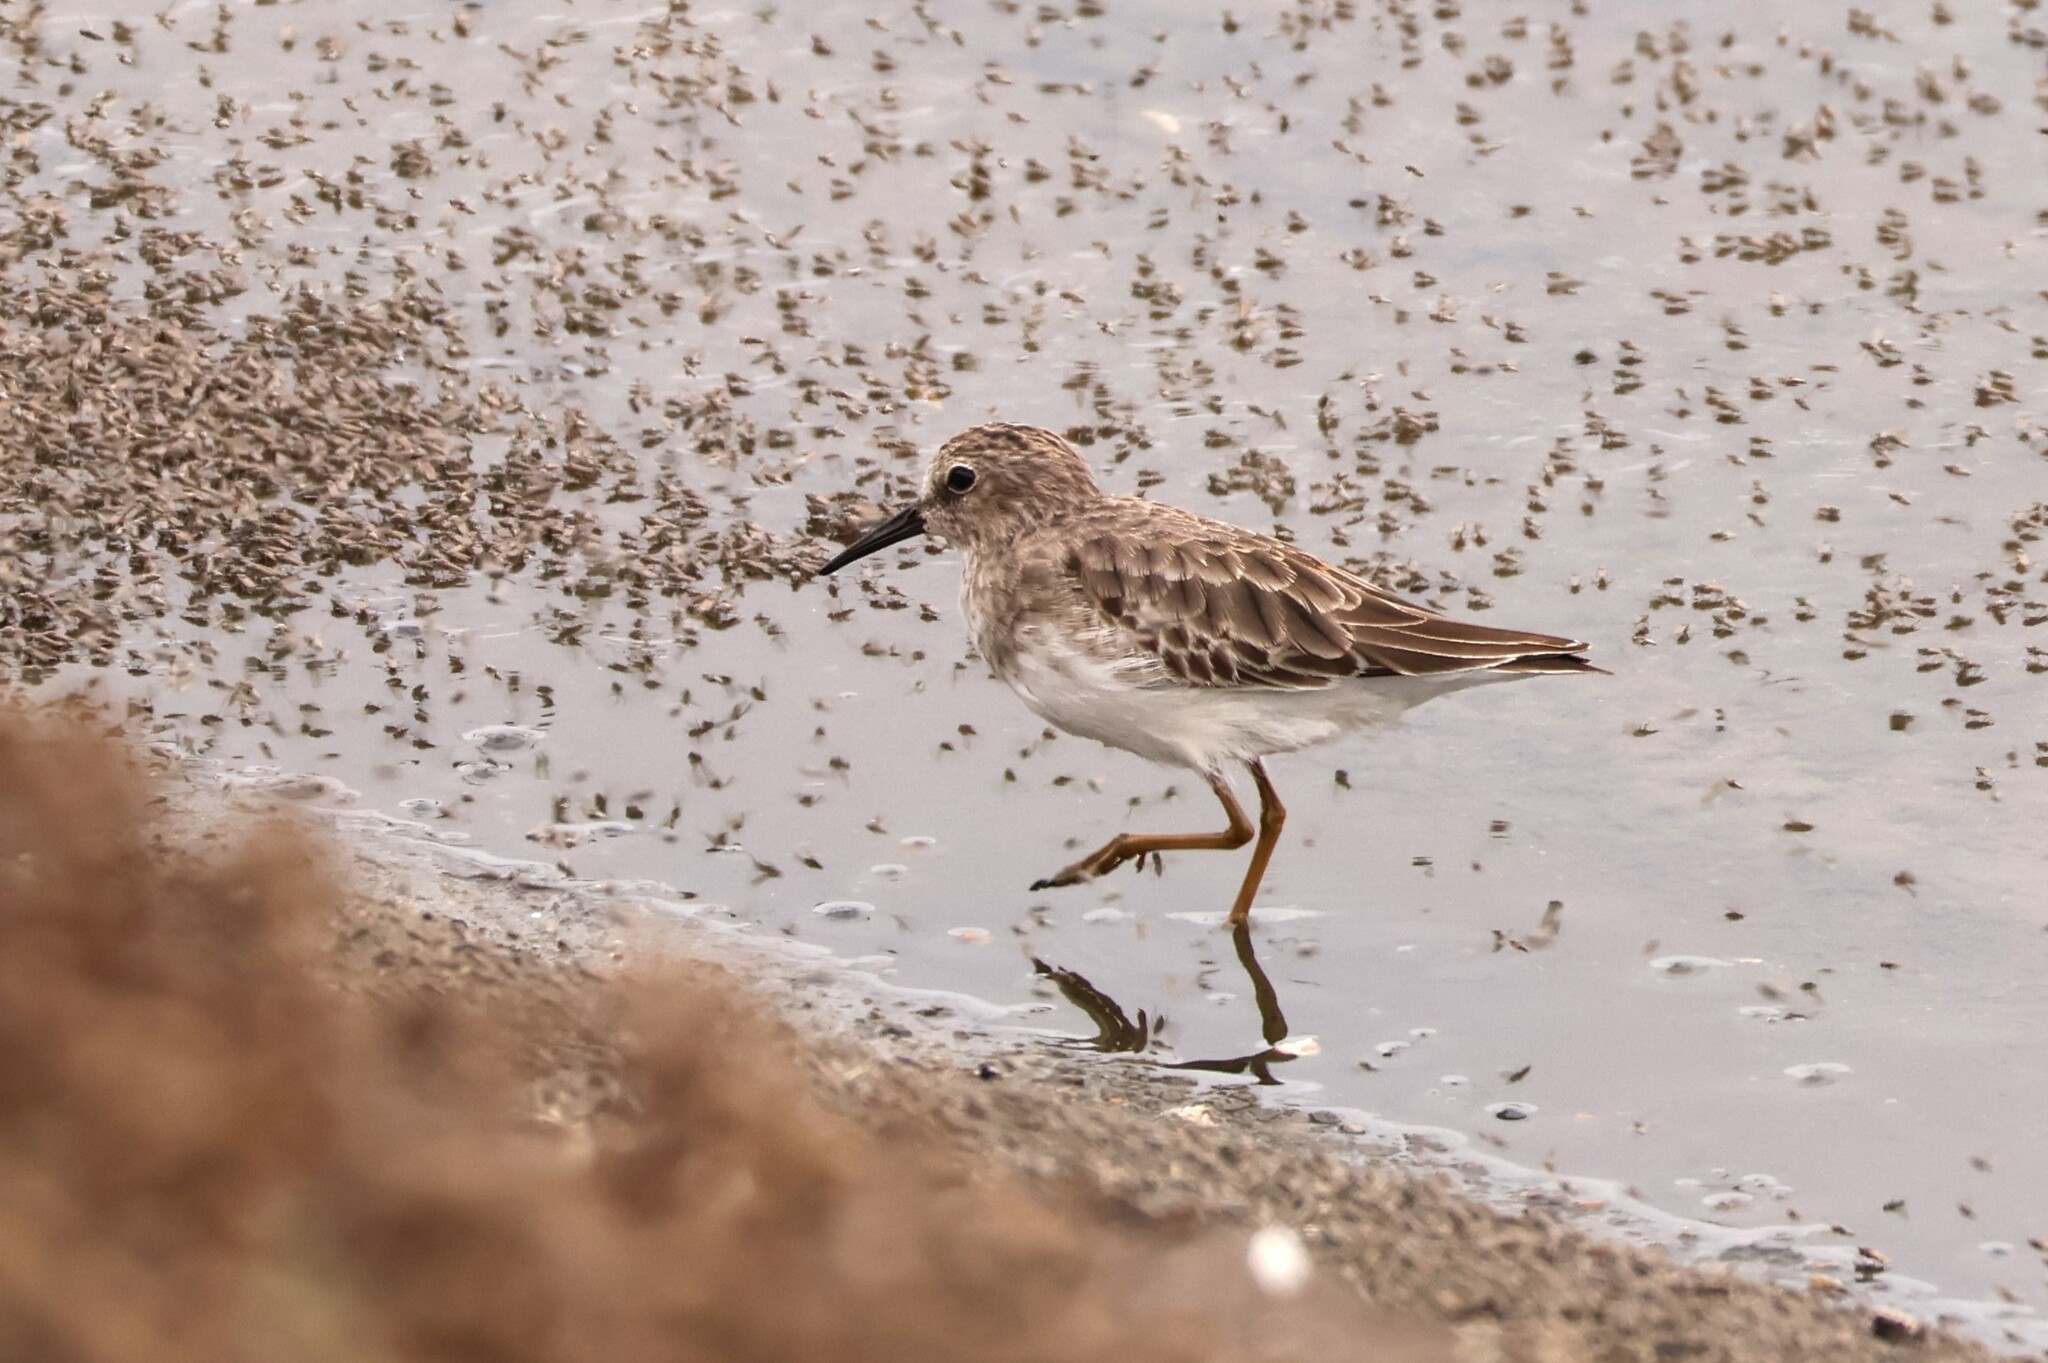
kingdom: Animalia
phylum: Chordata
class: Aves
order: Charadriiformes
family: Scolopacidae
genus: Calidris
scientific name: Calidris minutilla
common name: Least sandpiper
